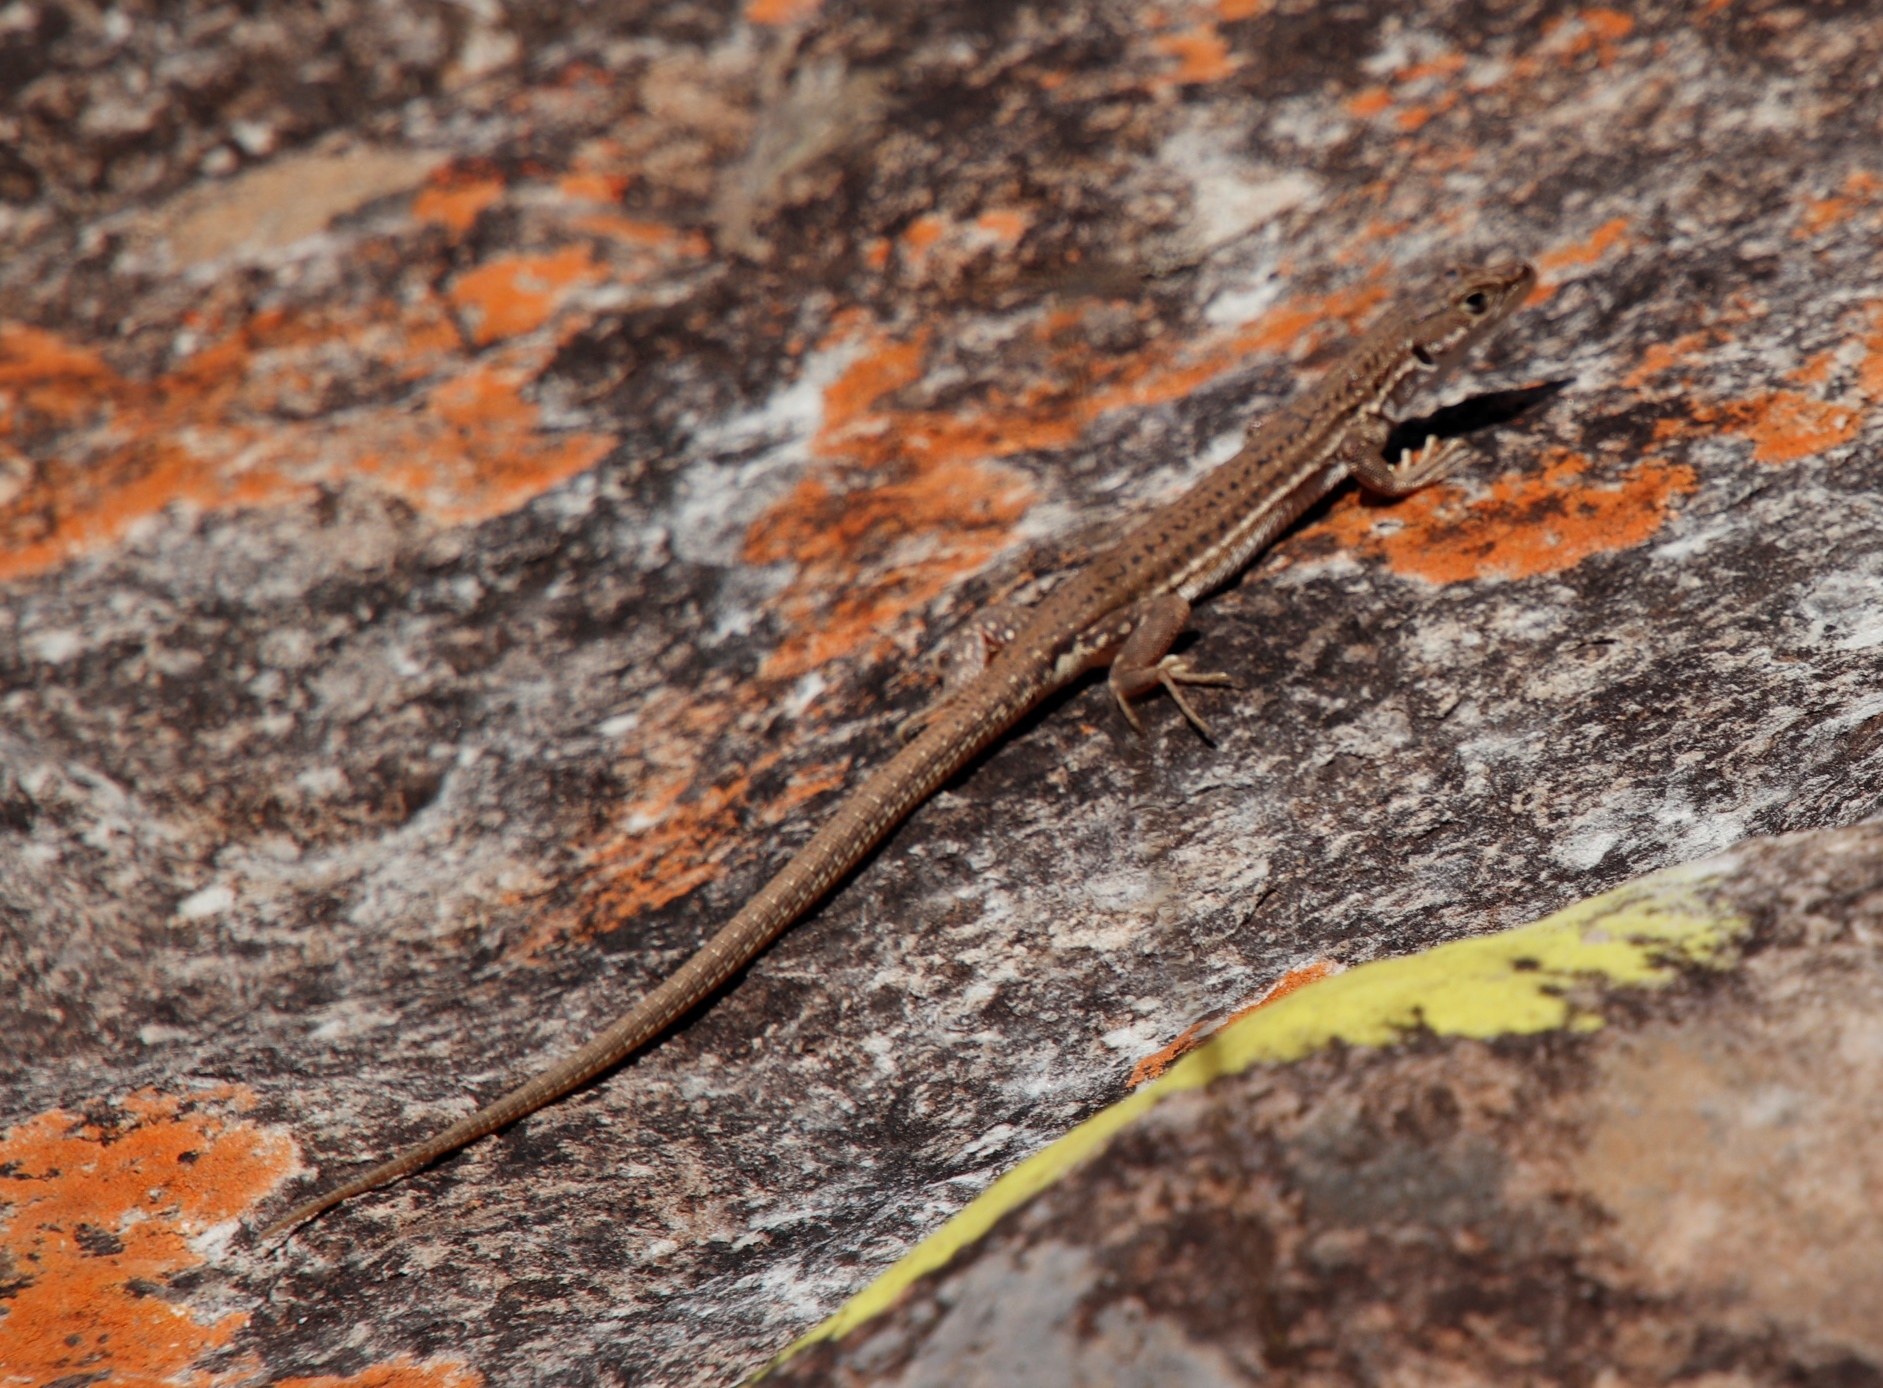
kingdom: Animalia
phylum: Chordata
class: Squamata
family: Lacertidae
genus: Pedioplanis
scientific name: Pedioplanis burchelli
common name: Burchell's sand lizard
